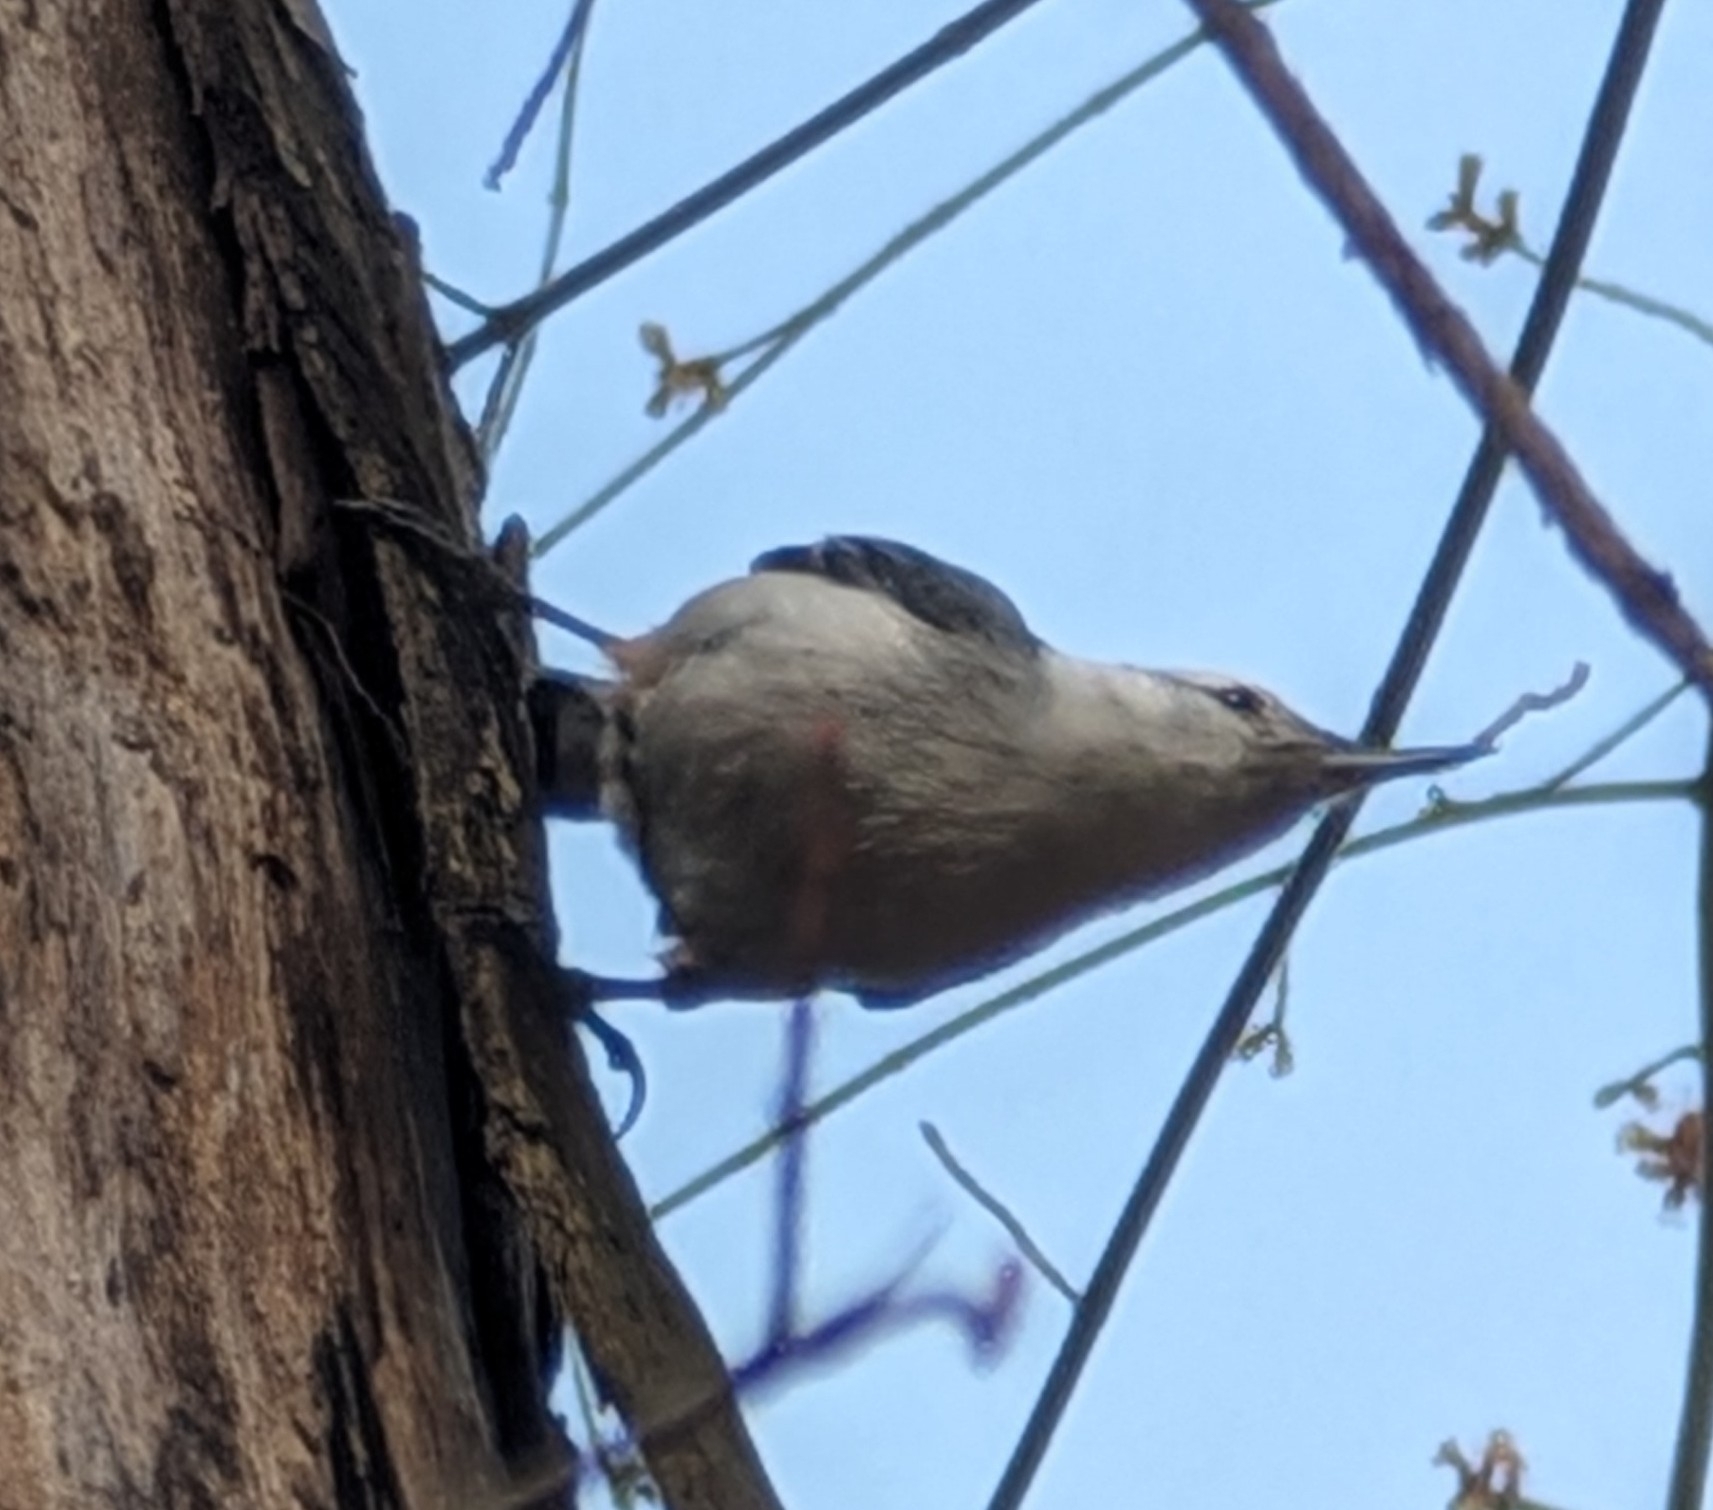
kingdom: Animalia
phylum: Chordata
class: Aves
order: Passeriformes
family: Sittidae
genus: Sitta
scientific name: Sitta carolinensis
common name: White-breasted nuthatch
